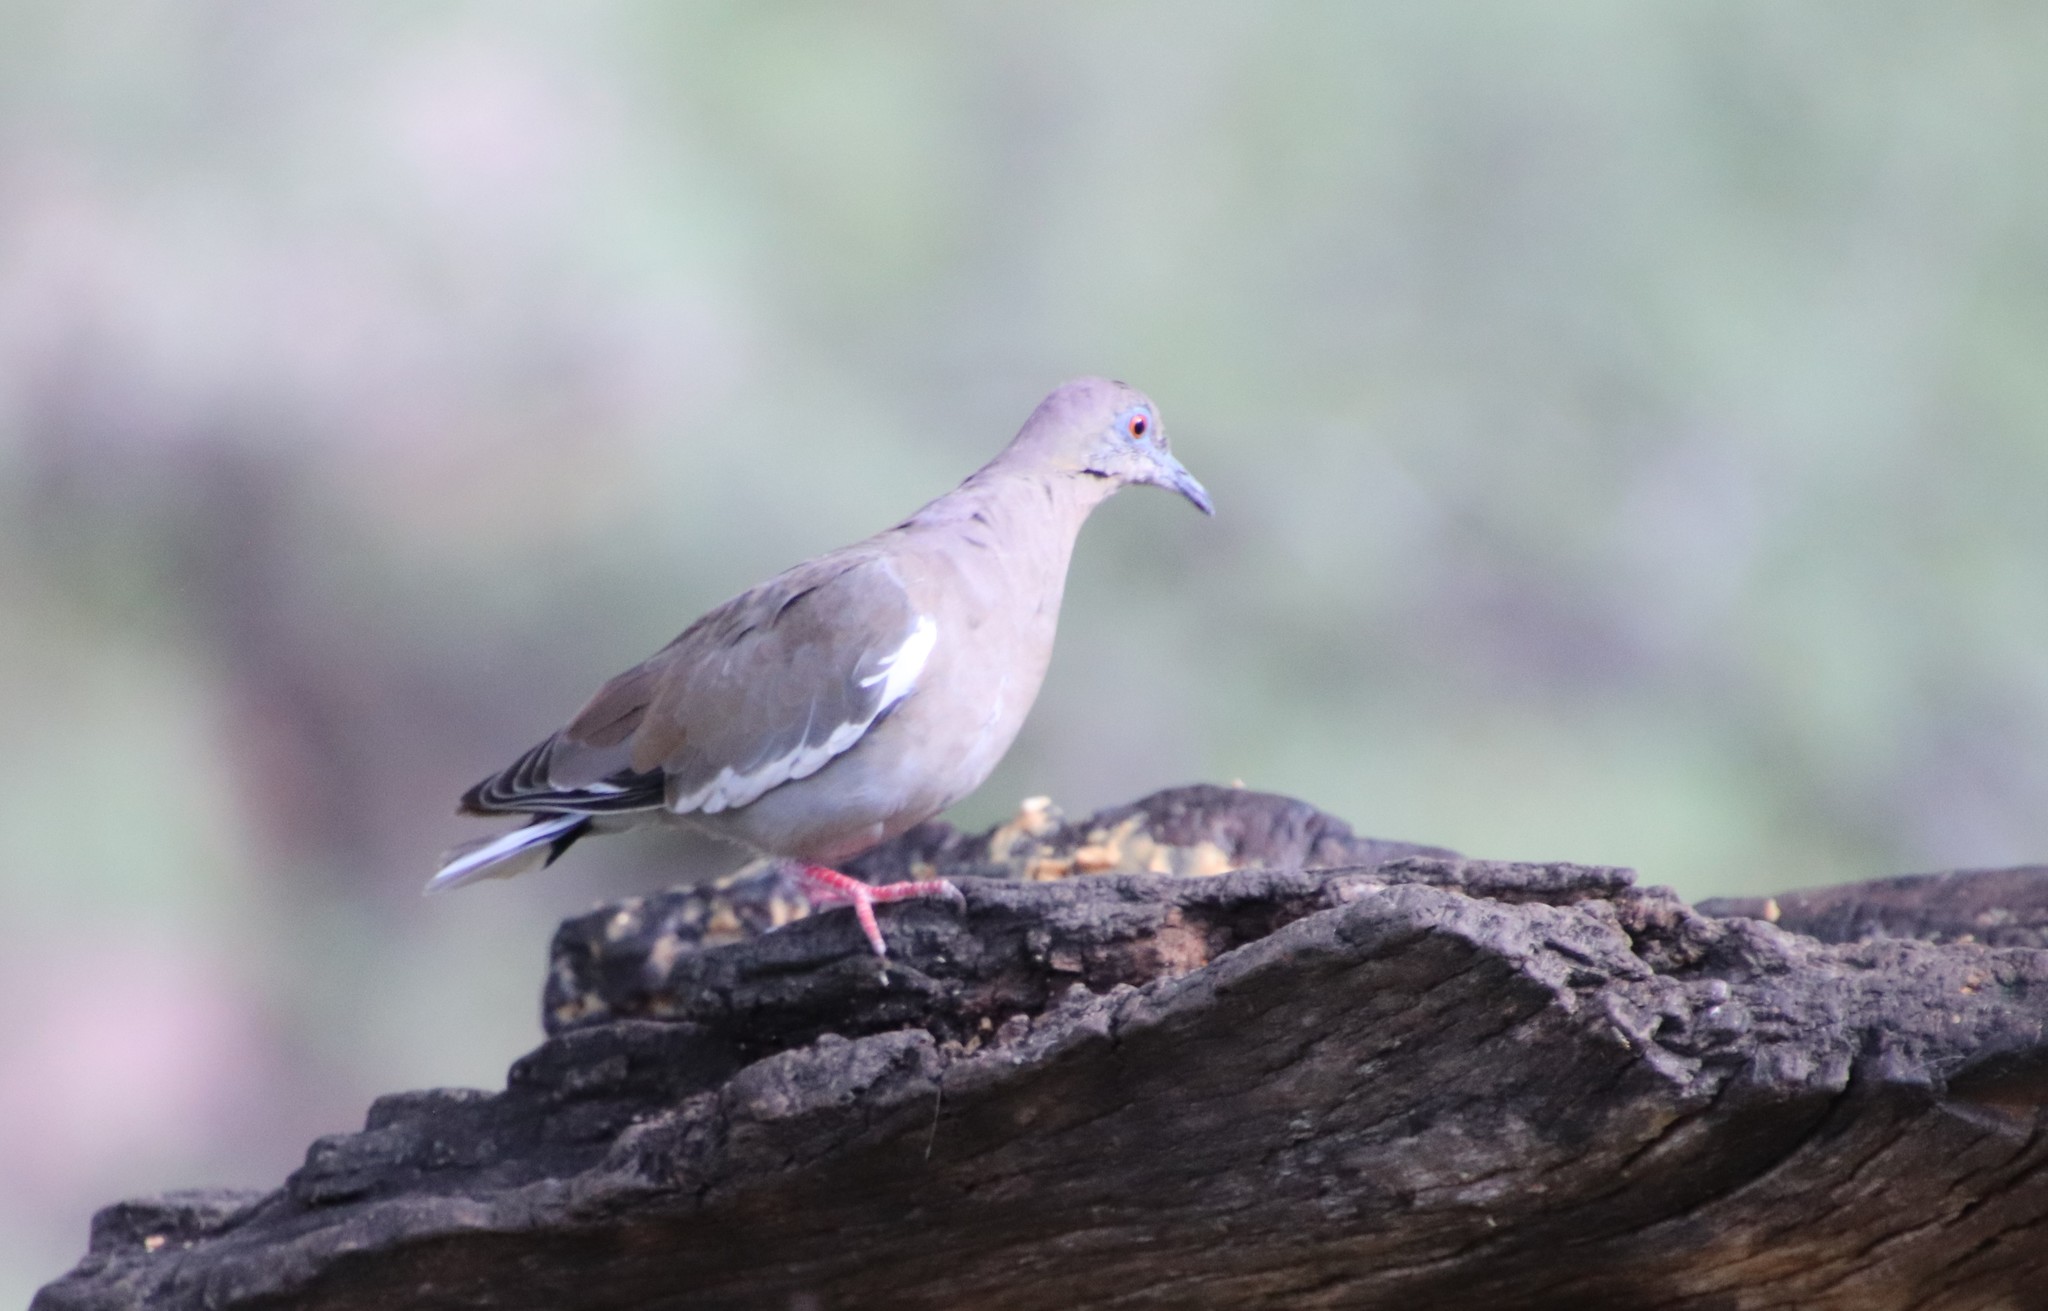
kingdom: Animalia
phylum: Chordata
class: Aves
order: Columbiformes
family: Columbidae
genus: Zenaida
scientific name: Zenaida asiatica
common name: White-winged dove
